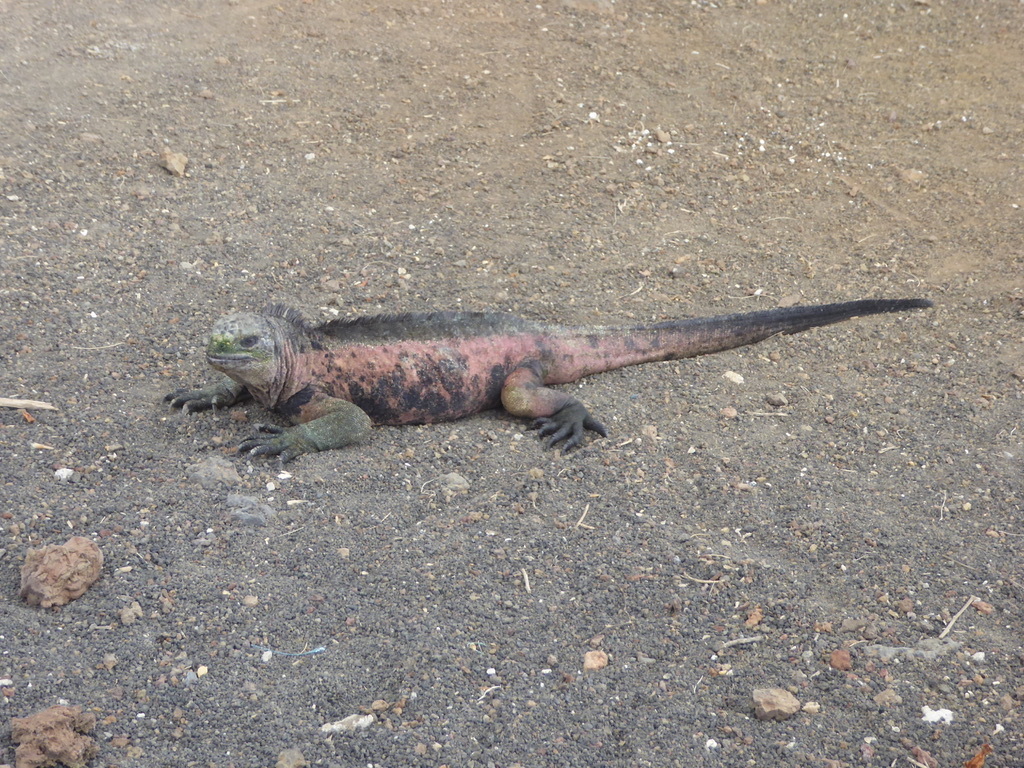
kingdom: Animalia
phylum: Chordata
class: Squamata
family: Iguanidae
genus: Amblyrhynchus
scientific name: Amblyrhynchus cristatus
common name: Marine iguana
